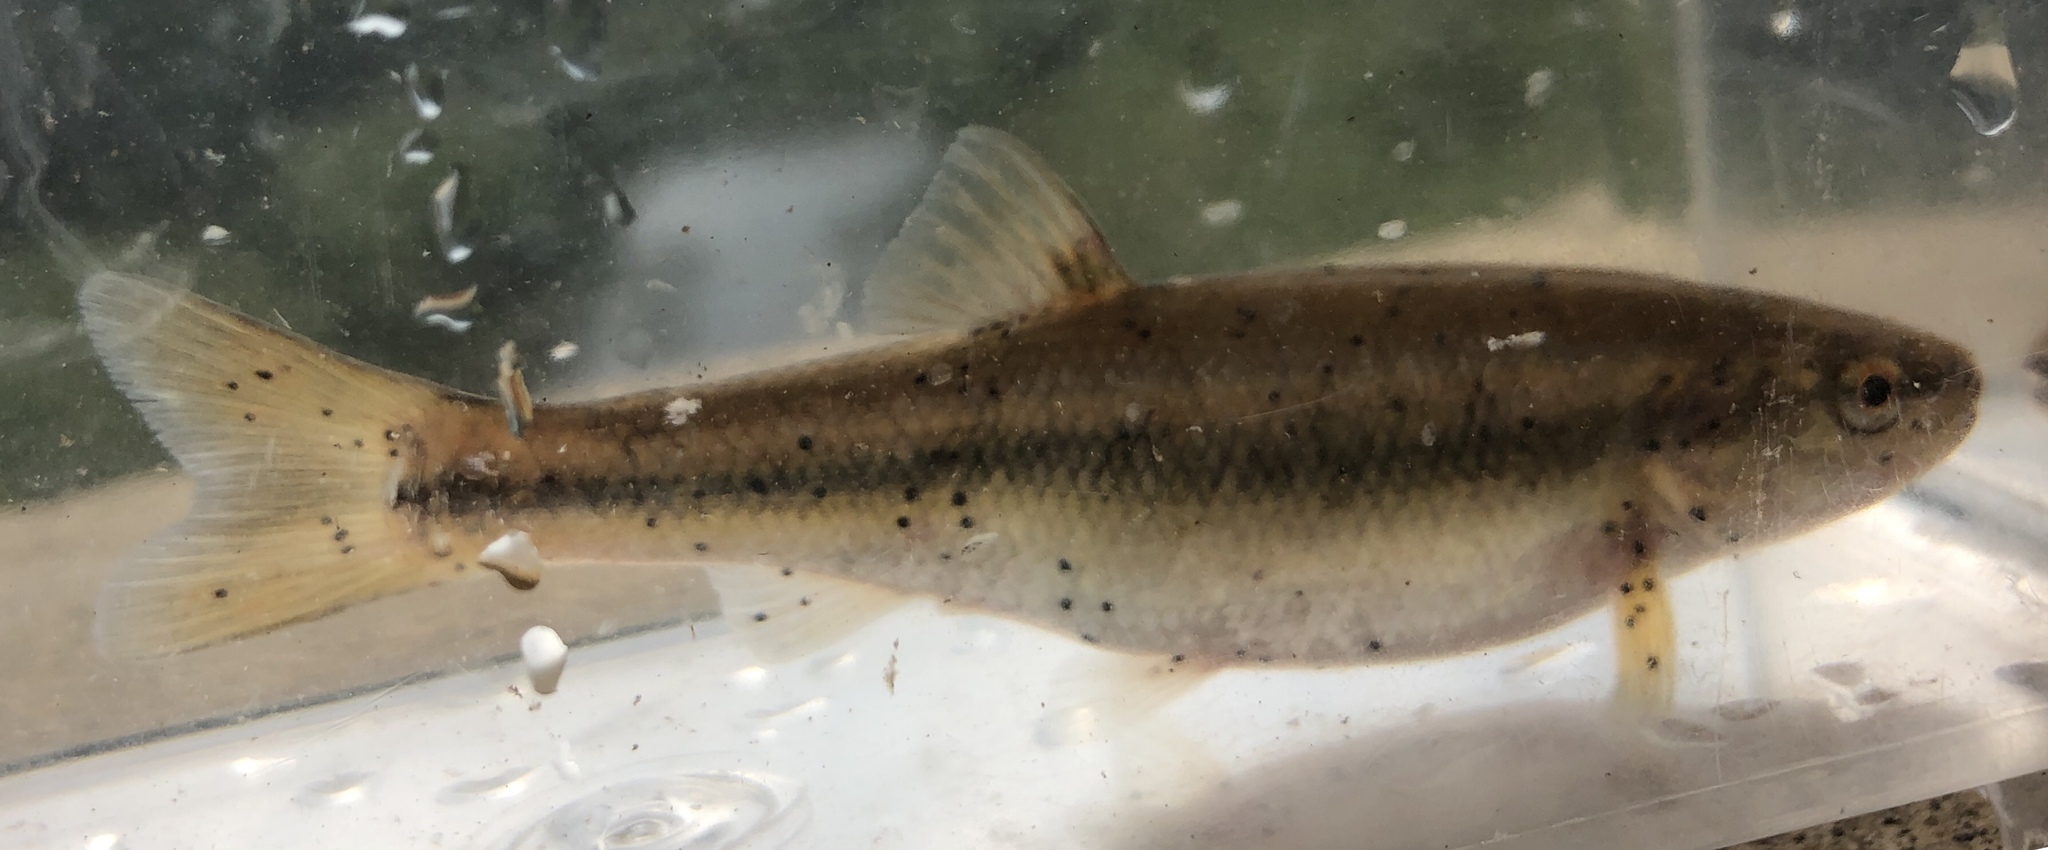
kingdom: Animalia
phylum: Chordata
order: Cypriniformes
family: Cyprinidae
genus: Semotilus
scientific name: Semotilus atromaculatus
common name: Creek chub
